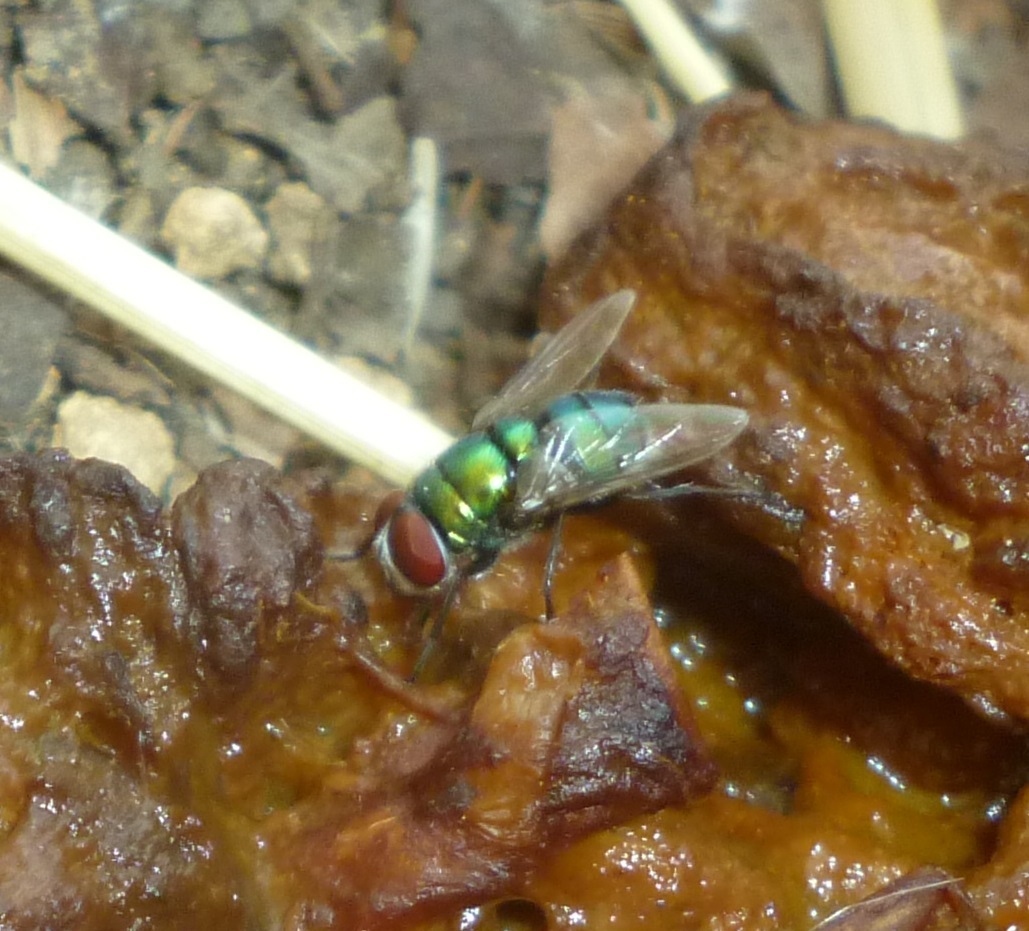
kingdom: Animalia
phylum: Arthropoda
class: Insecta
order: Diptera
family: Calliphoridae
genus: Chrysomya
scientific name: Chrysomya albiceps
